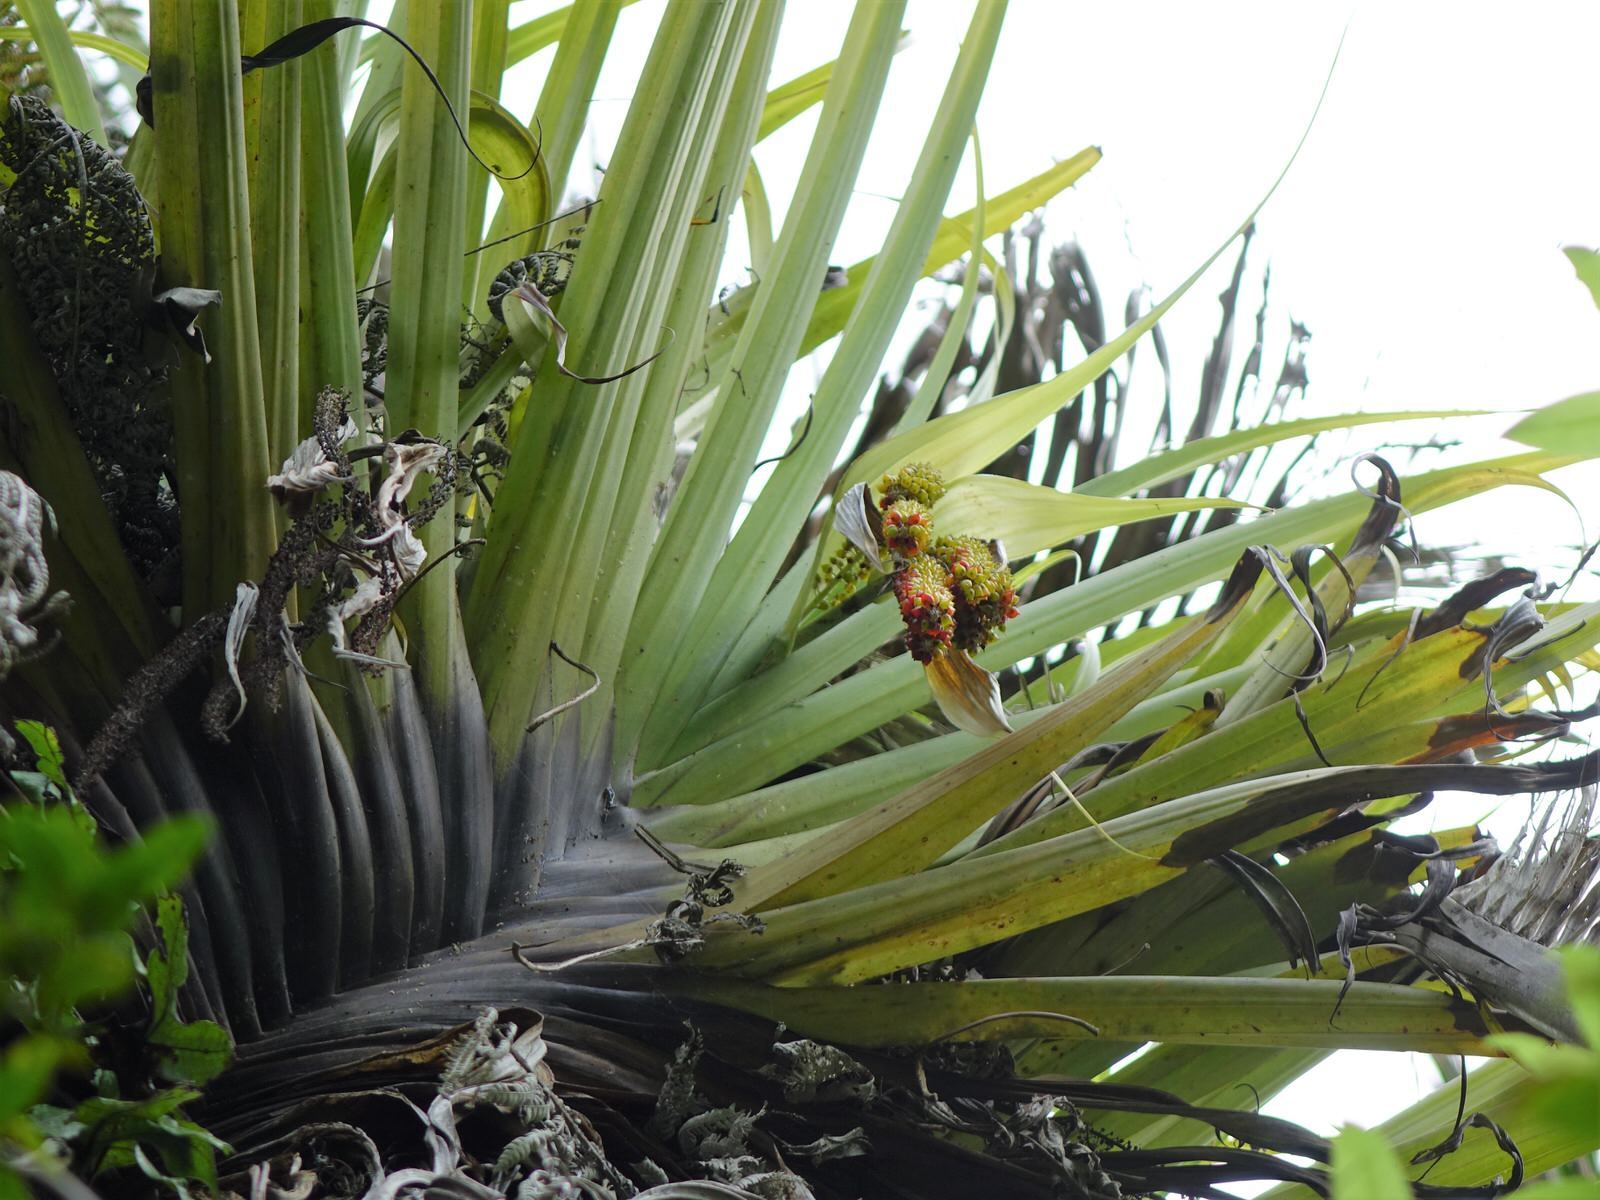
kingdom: Plantae
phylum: Tracheophyta
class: Liliopsida
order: Asparagales
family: Asteliaceae
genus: Astelia
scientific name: Astelia hastata
